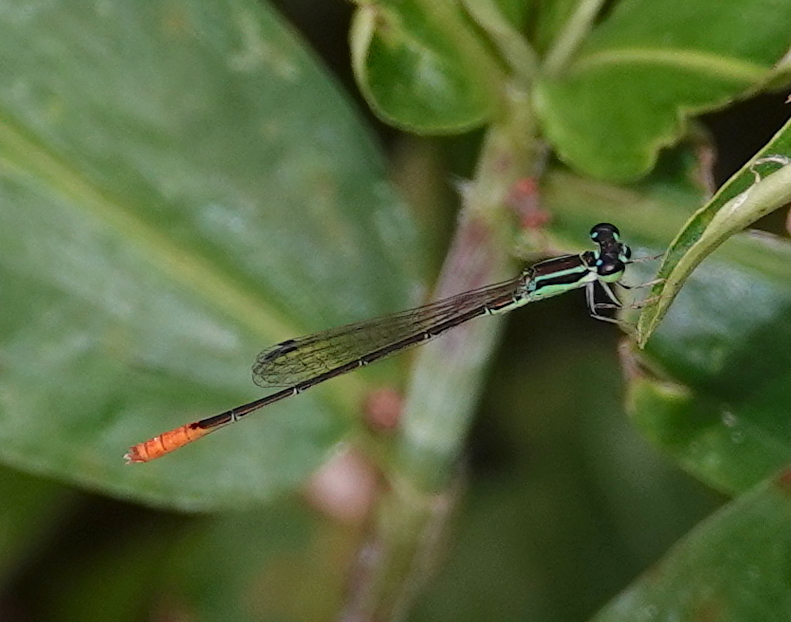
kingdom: Animalia
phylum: Arthropoda
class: Insecta
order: Odonata
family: Coenagrionidae
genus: Agriocnemis
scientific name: Agriocnemis femina
